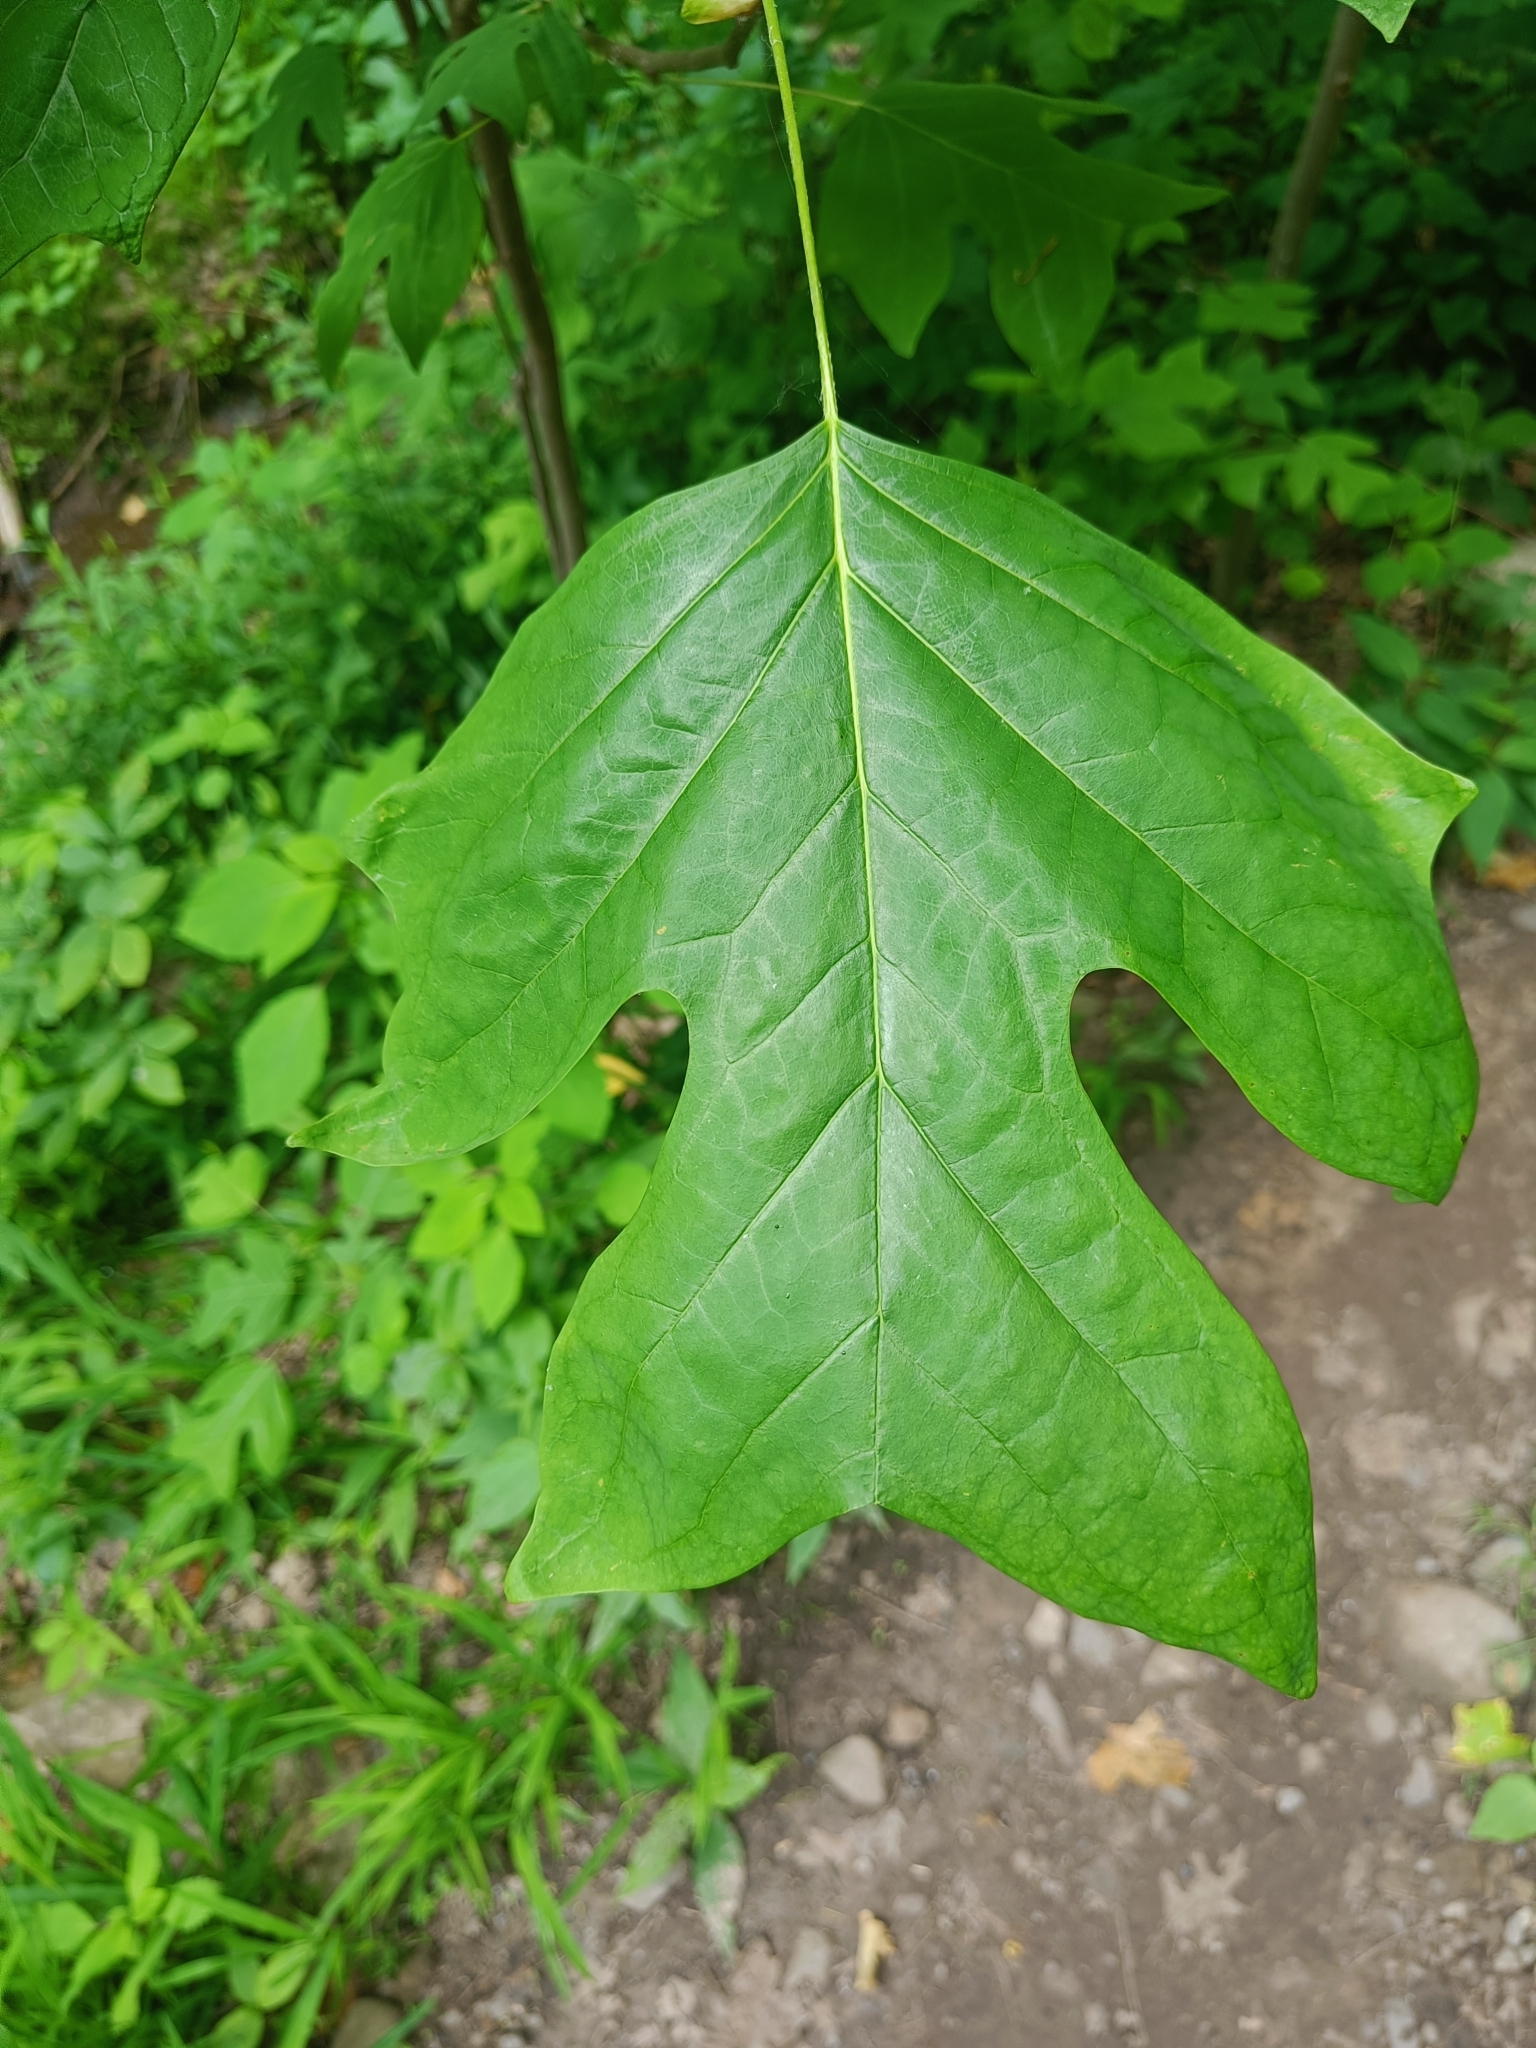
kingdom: Plantae
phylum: Tracheophyta
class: Magnoliopsida
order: Magnoliales
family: Magnoliaceae
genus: Liriodendron
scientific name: Liriodendron tulipifera
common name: Tulip tree
